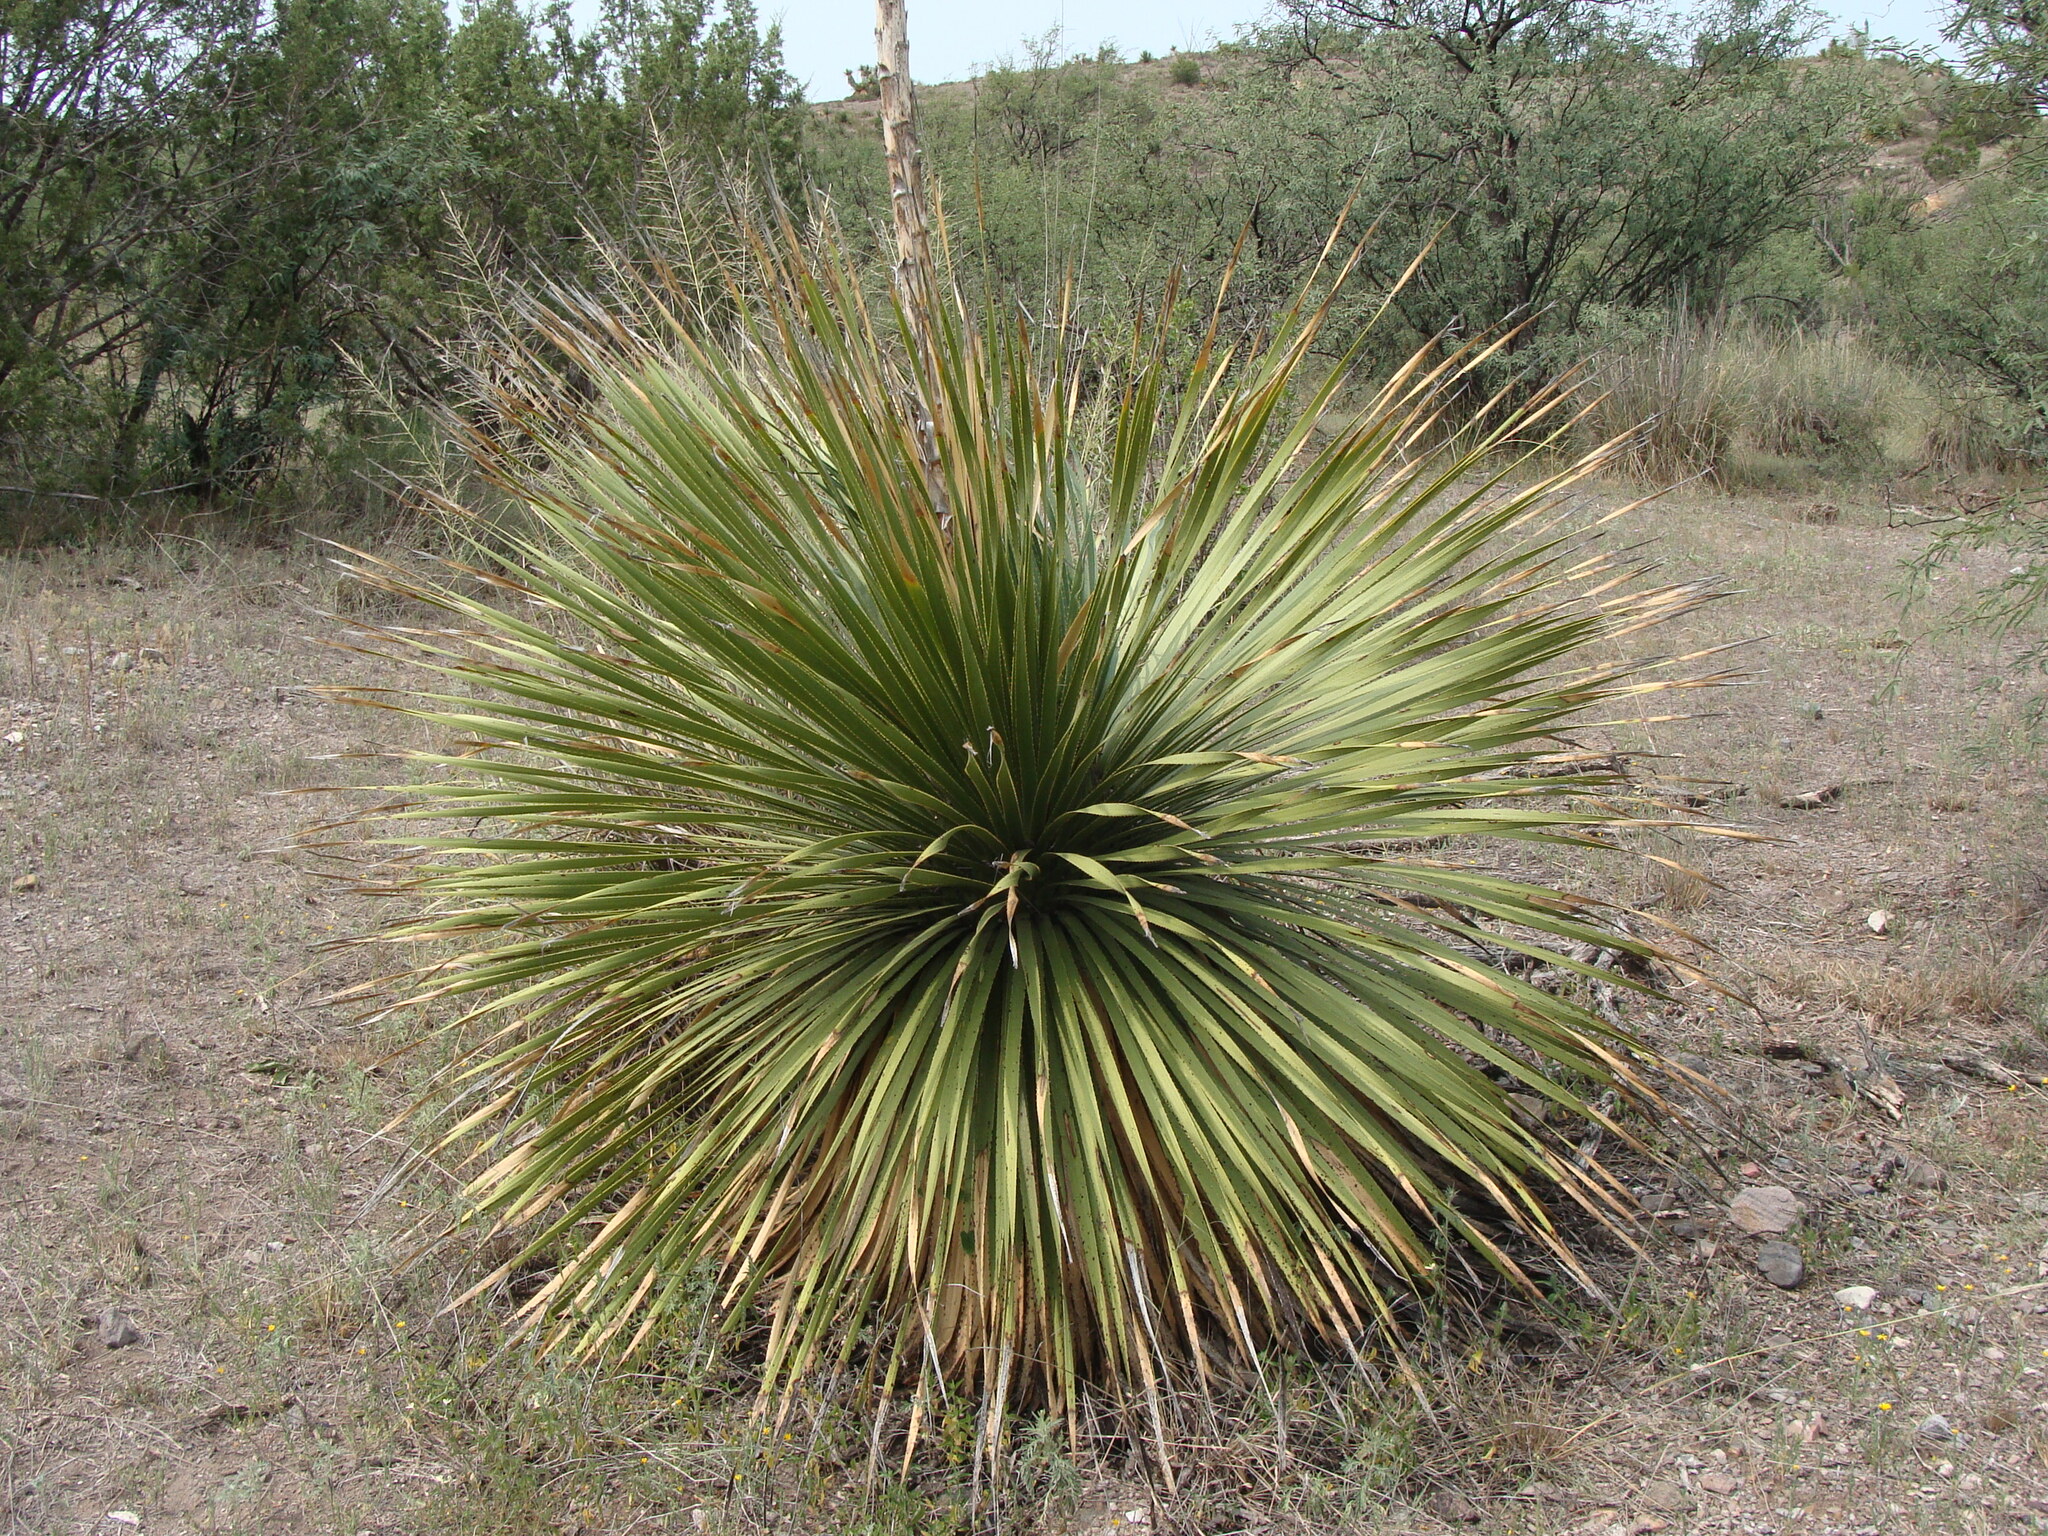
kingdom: Plantae
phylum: Tracheophyta
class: Liliopsida
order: Asparagales
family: Asparagaceae
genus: Dasylirion
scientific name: Dasylirion wheeleri
